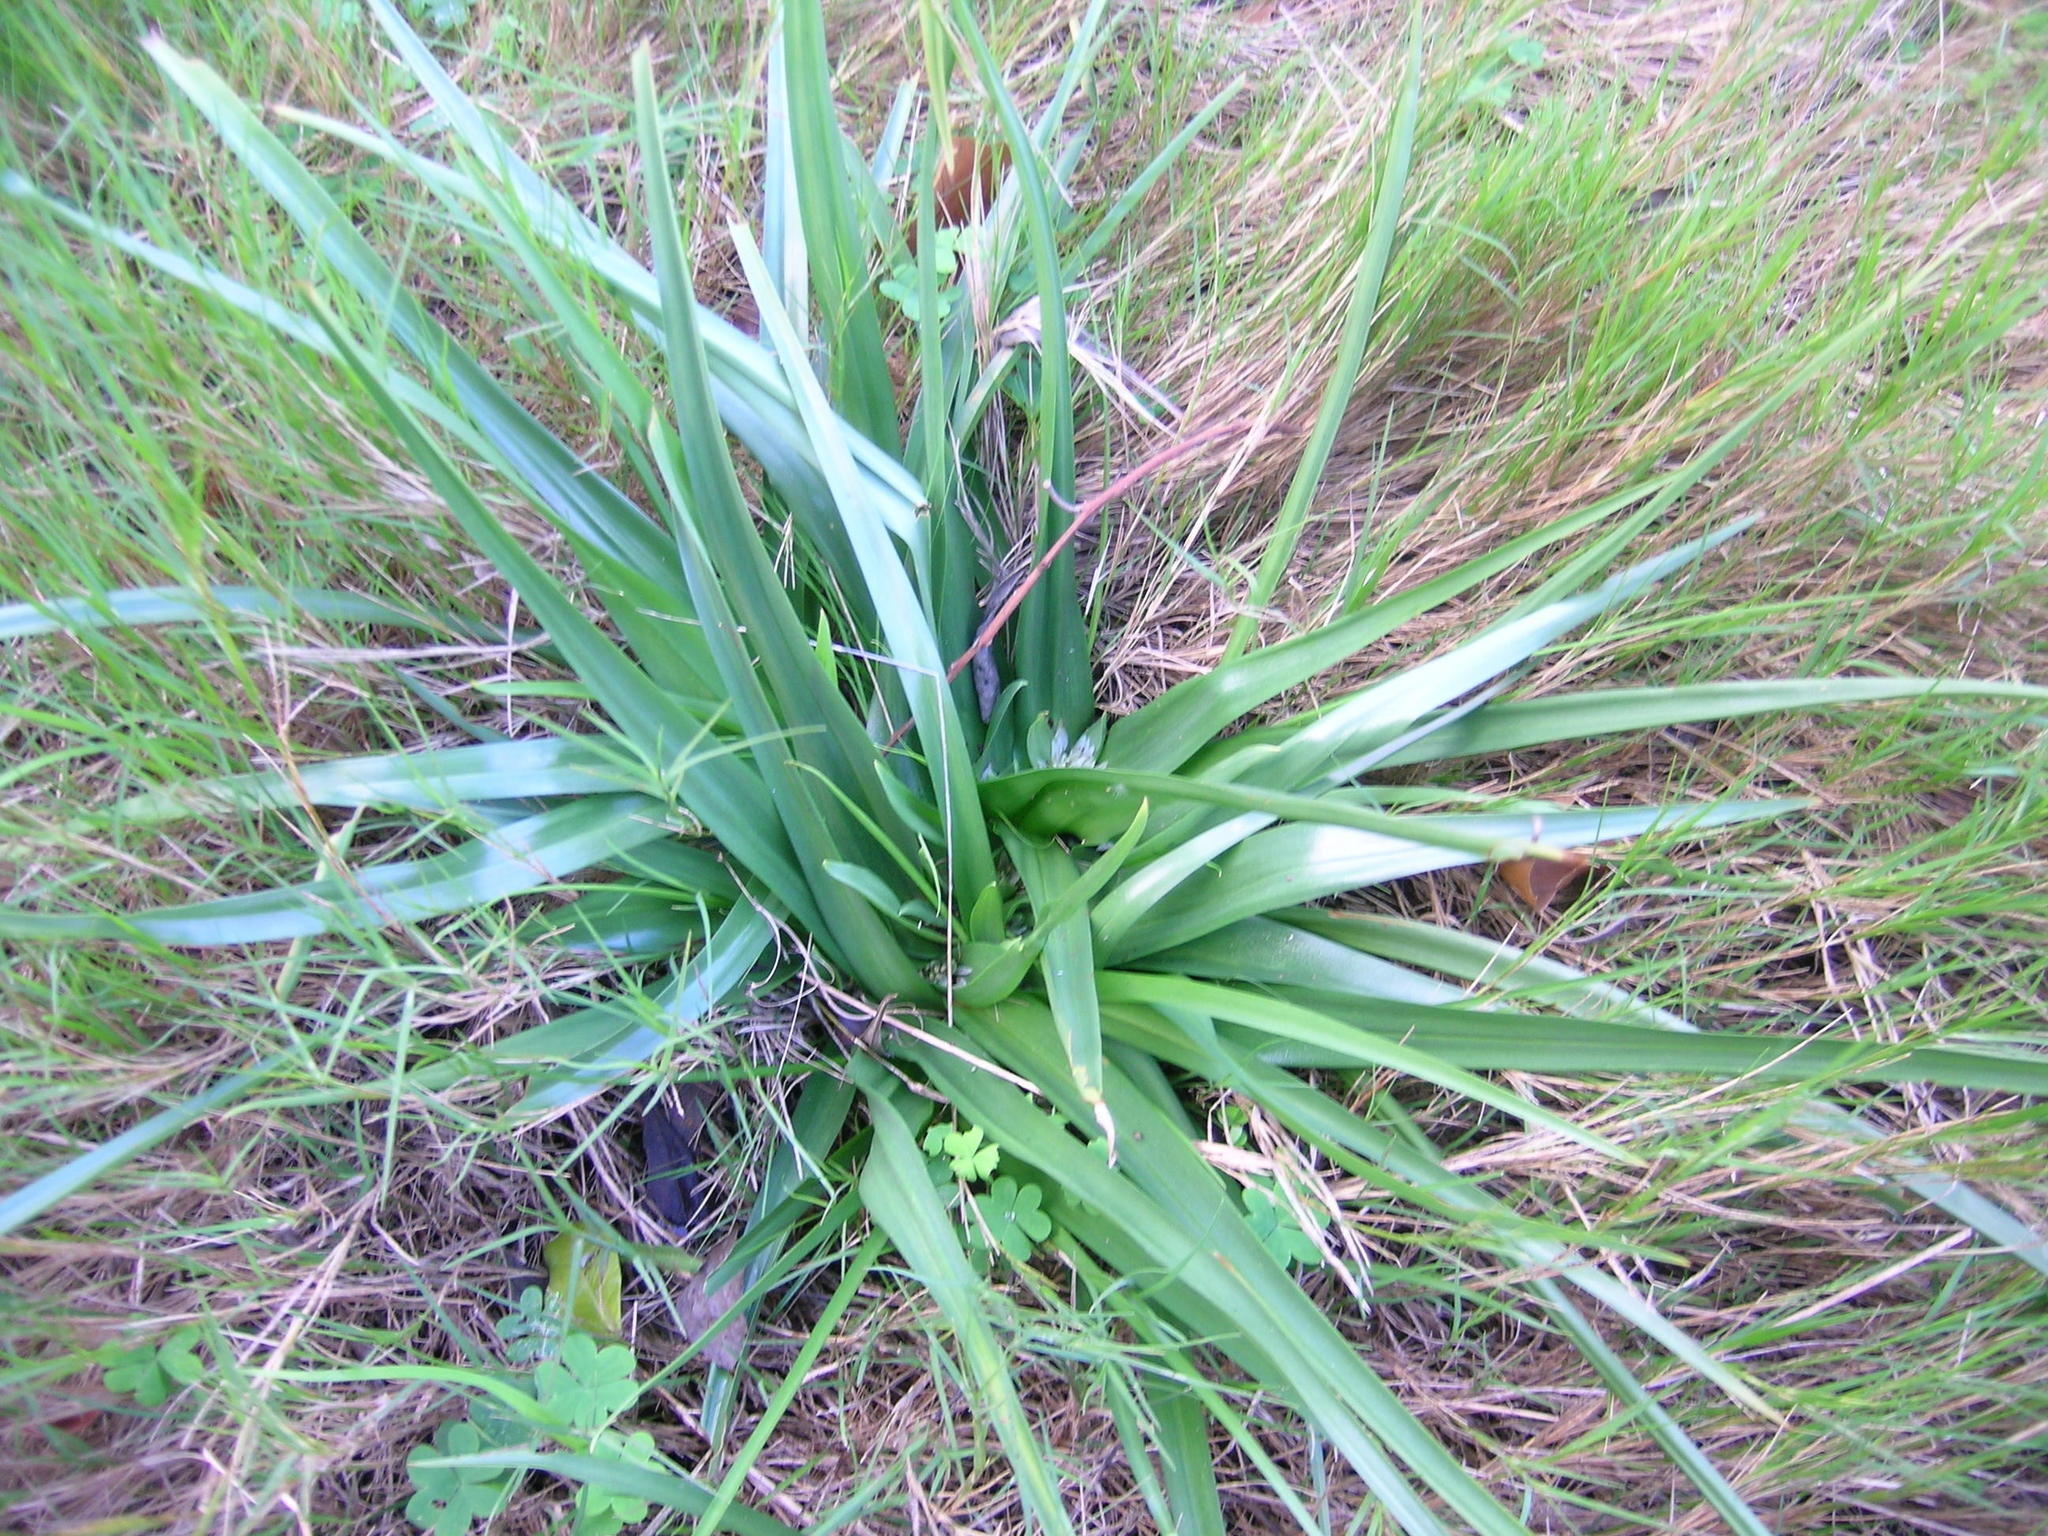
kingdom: Plantae
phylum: Tracheophyta
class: Liliopsida
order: Liliales
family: Colchicaceae
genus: Colchicum
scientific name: Colchicum longipes
